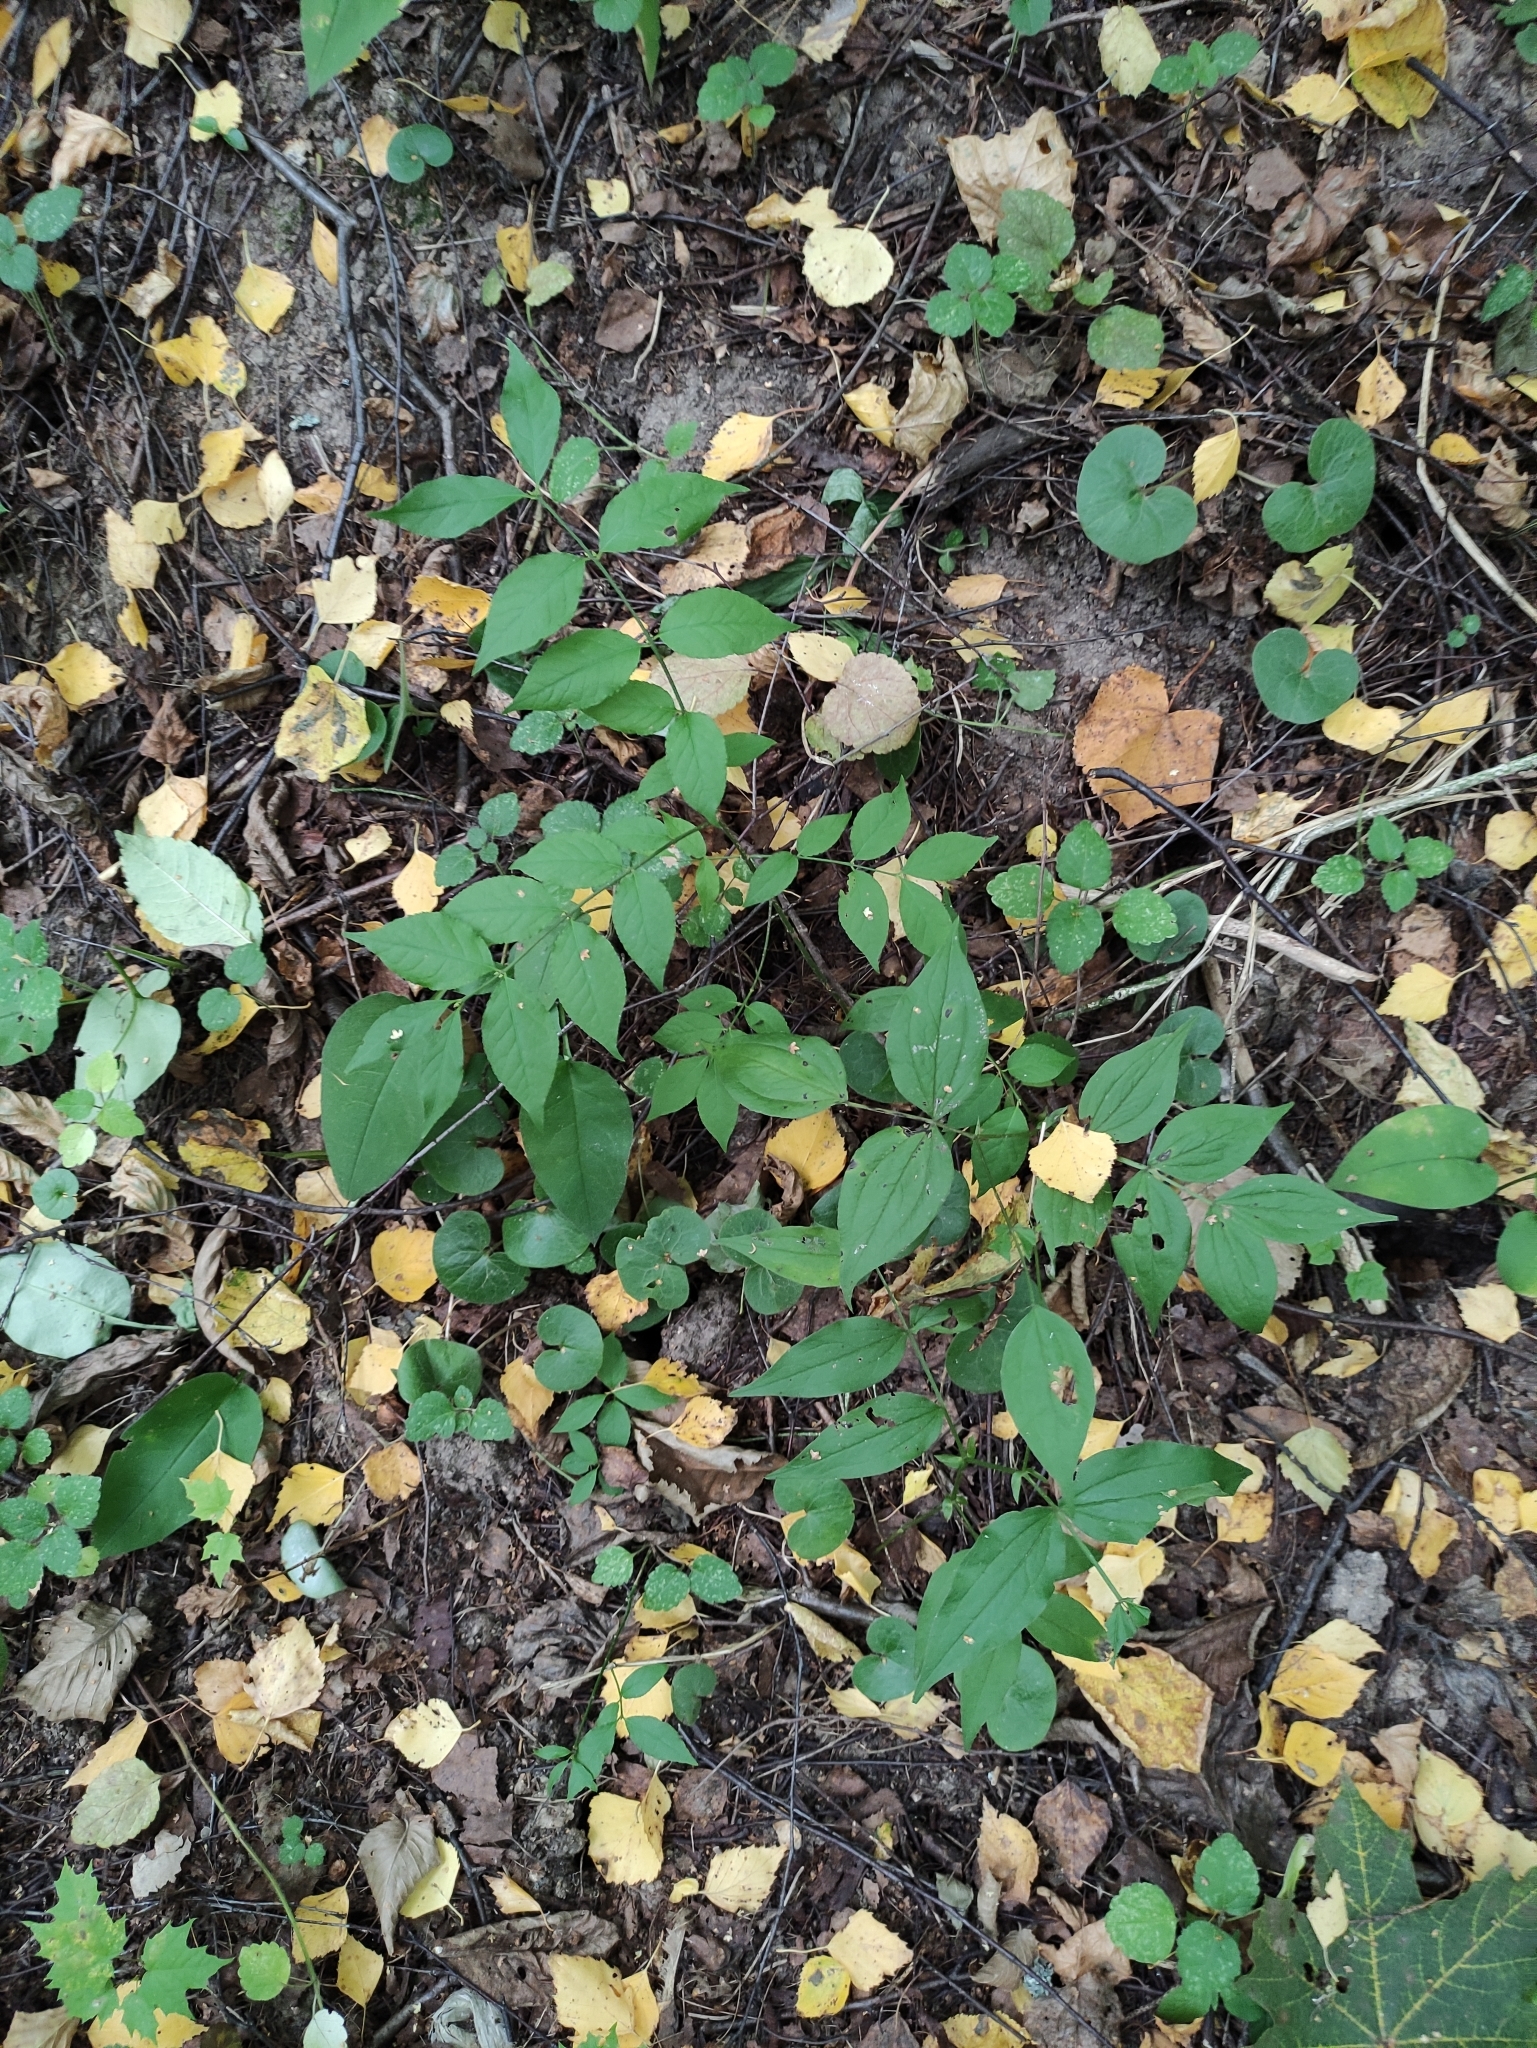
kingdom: Plantae
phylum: Tracheophyta
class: Magnoliopsida
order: Fabales
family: Fabaceae
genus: Lathyrus
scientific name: Lathyrus vernus
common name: Spring pea
